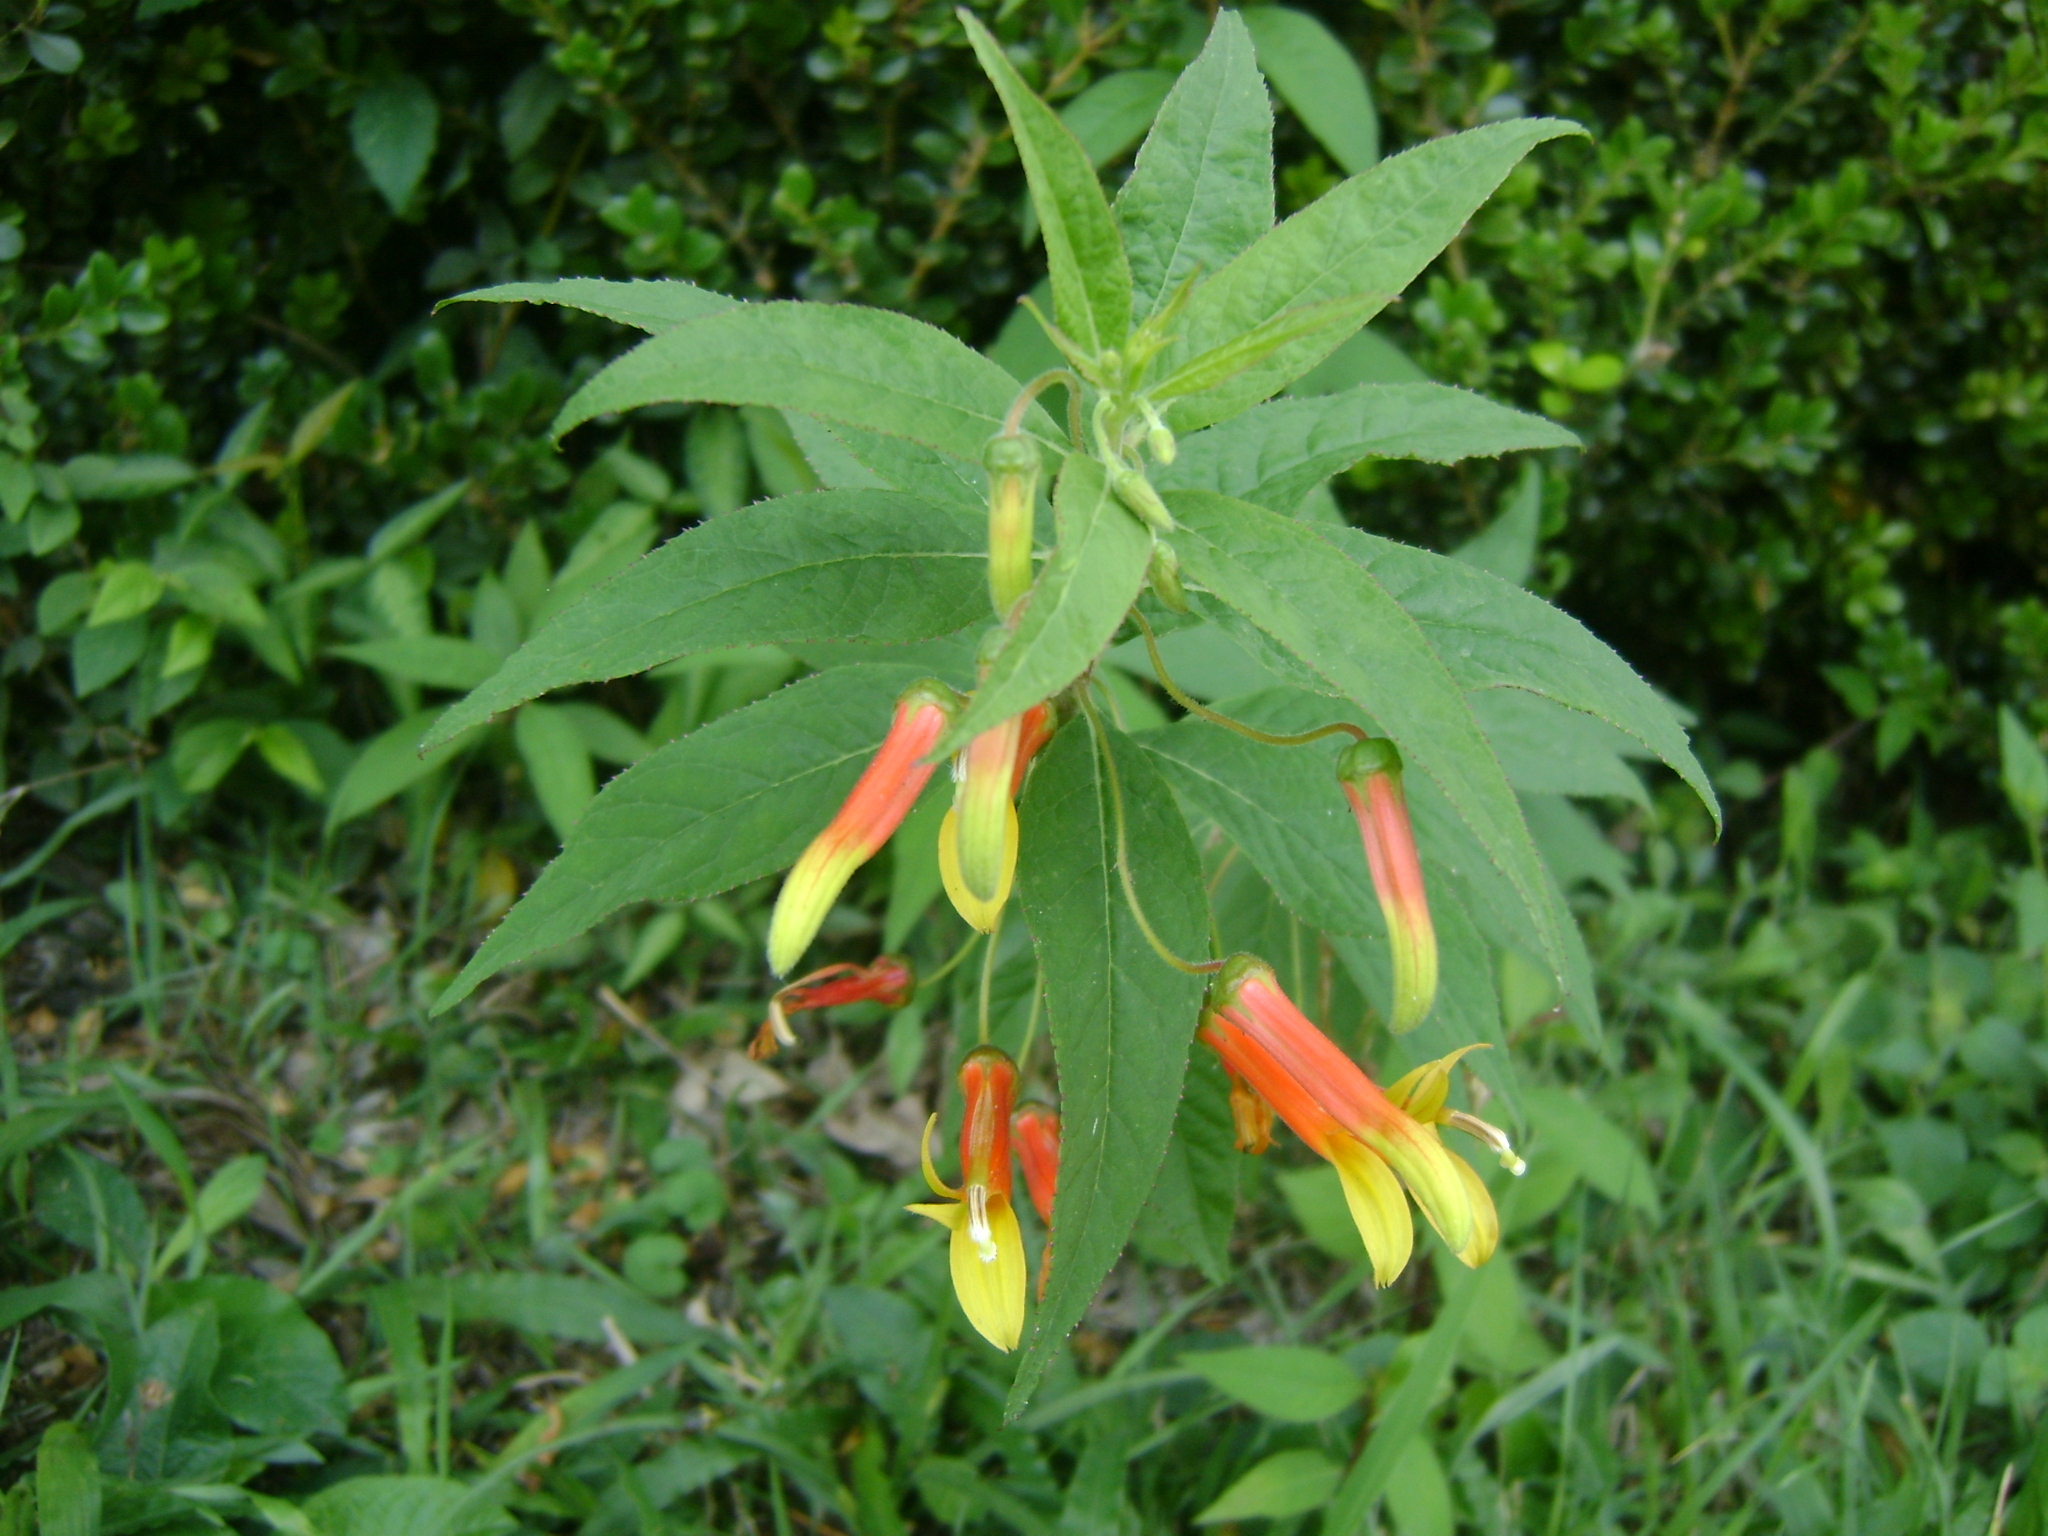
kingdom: Plantae
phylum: Tracheophyta
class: Magnoliopsida
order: Asterales
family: Campanulaceae
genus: Lobelia
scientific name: Lobelia laxiflora
